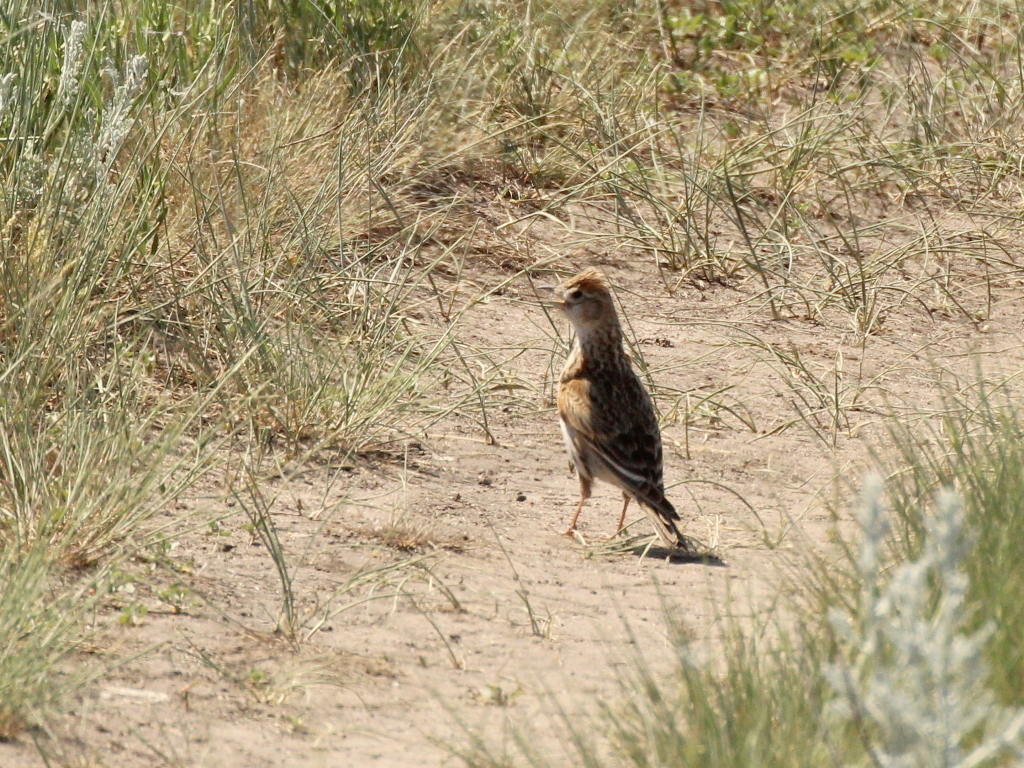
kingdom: Animalia
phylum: Chordata
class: Aves
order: Passeriformes
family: Alaudidae
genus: Melanocorypha
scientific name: Melanocorypha leucoptera
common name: White-winged lark
